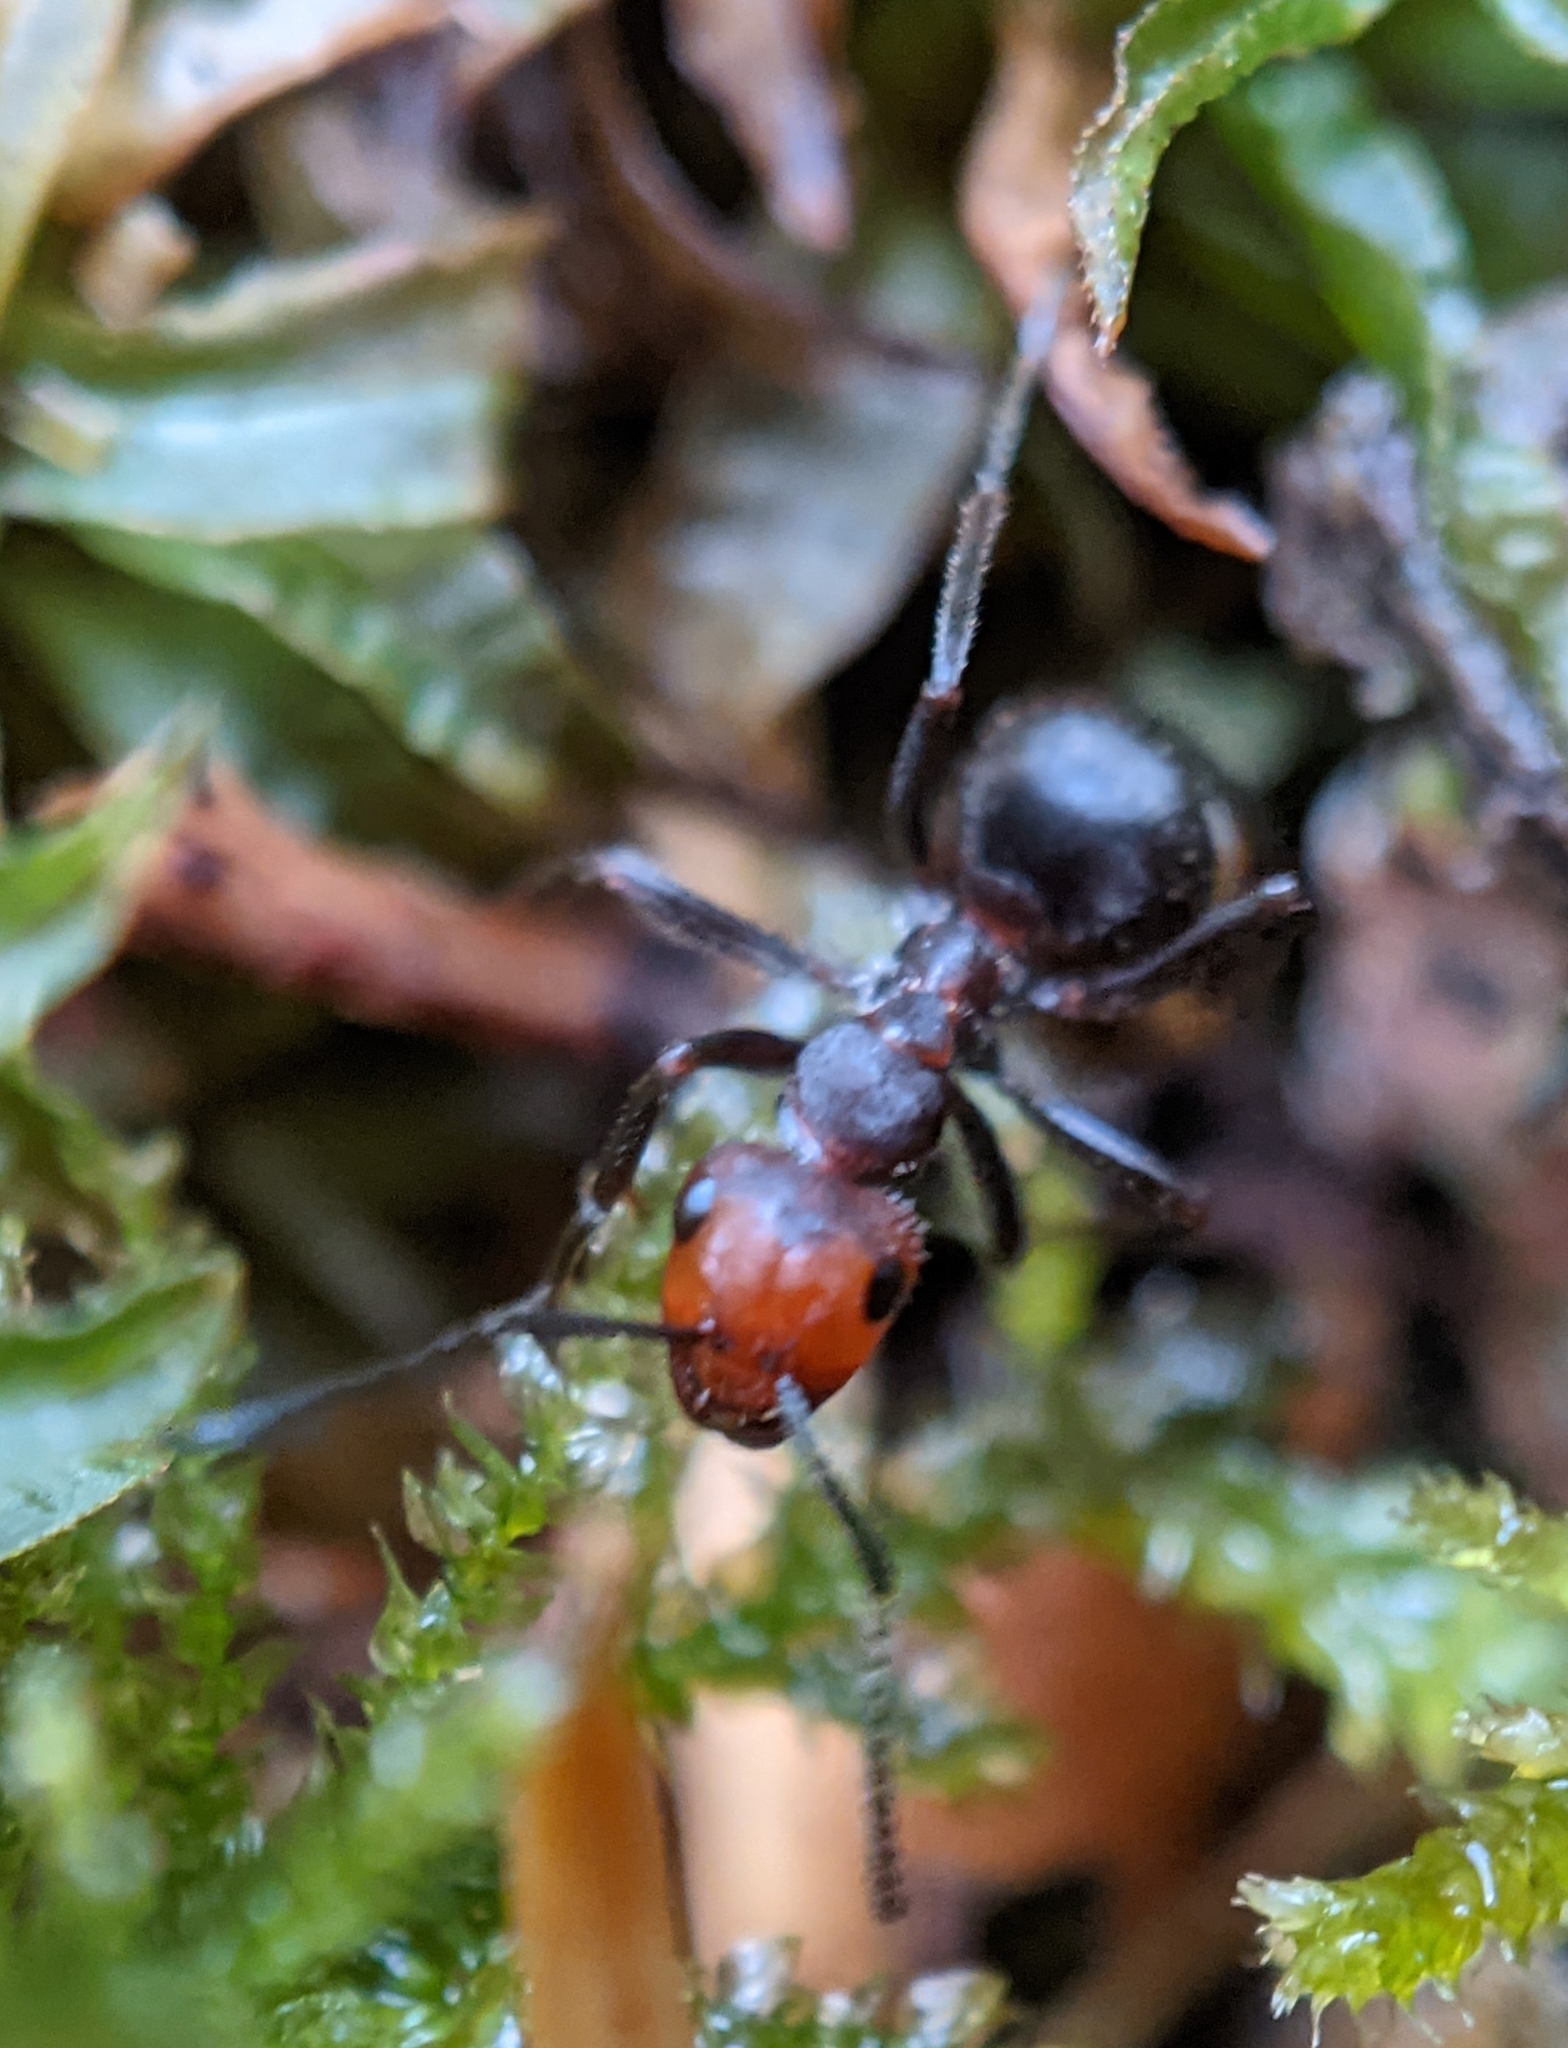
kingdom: Animalia
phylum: Arthropoda
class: Insecta
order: Hymenoptera
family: Formicidae
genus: Formica
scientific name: Formica obscuripes
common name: Western thatching ant
